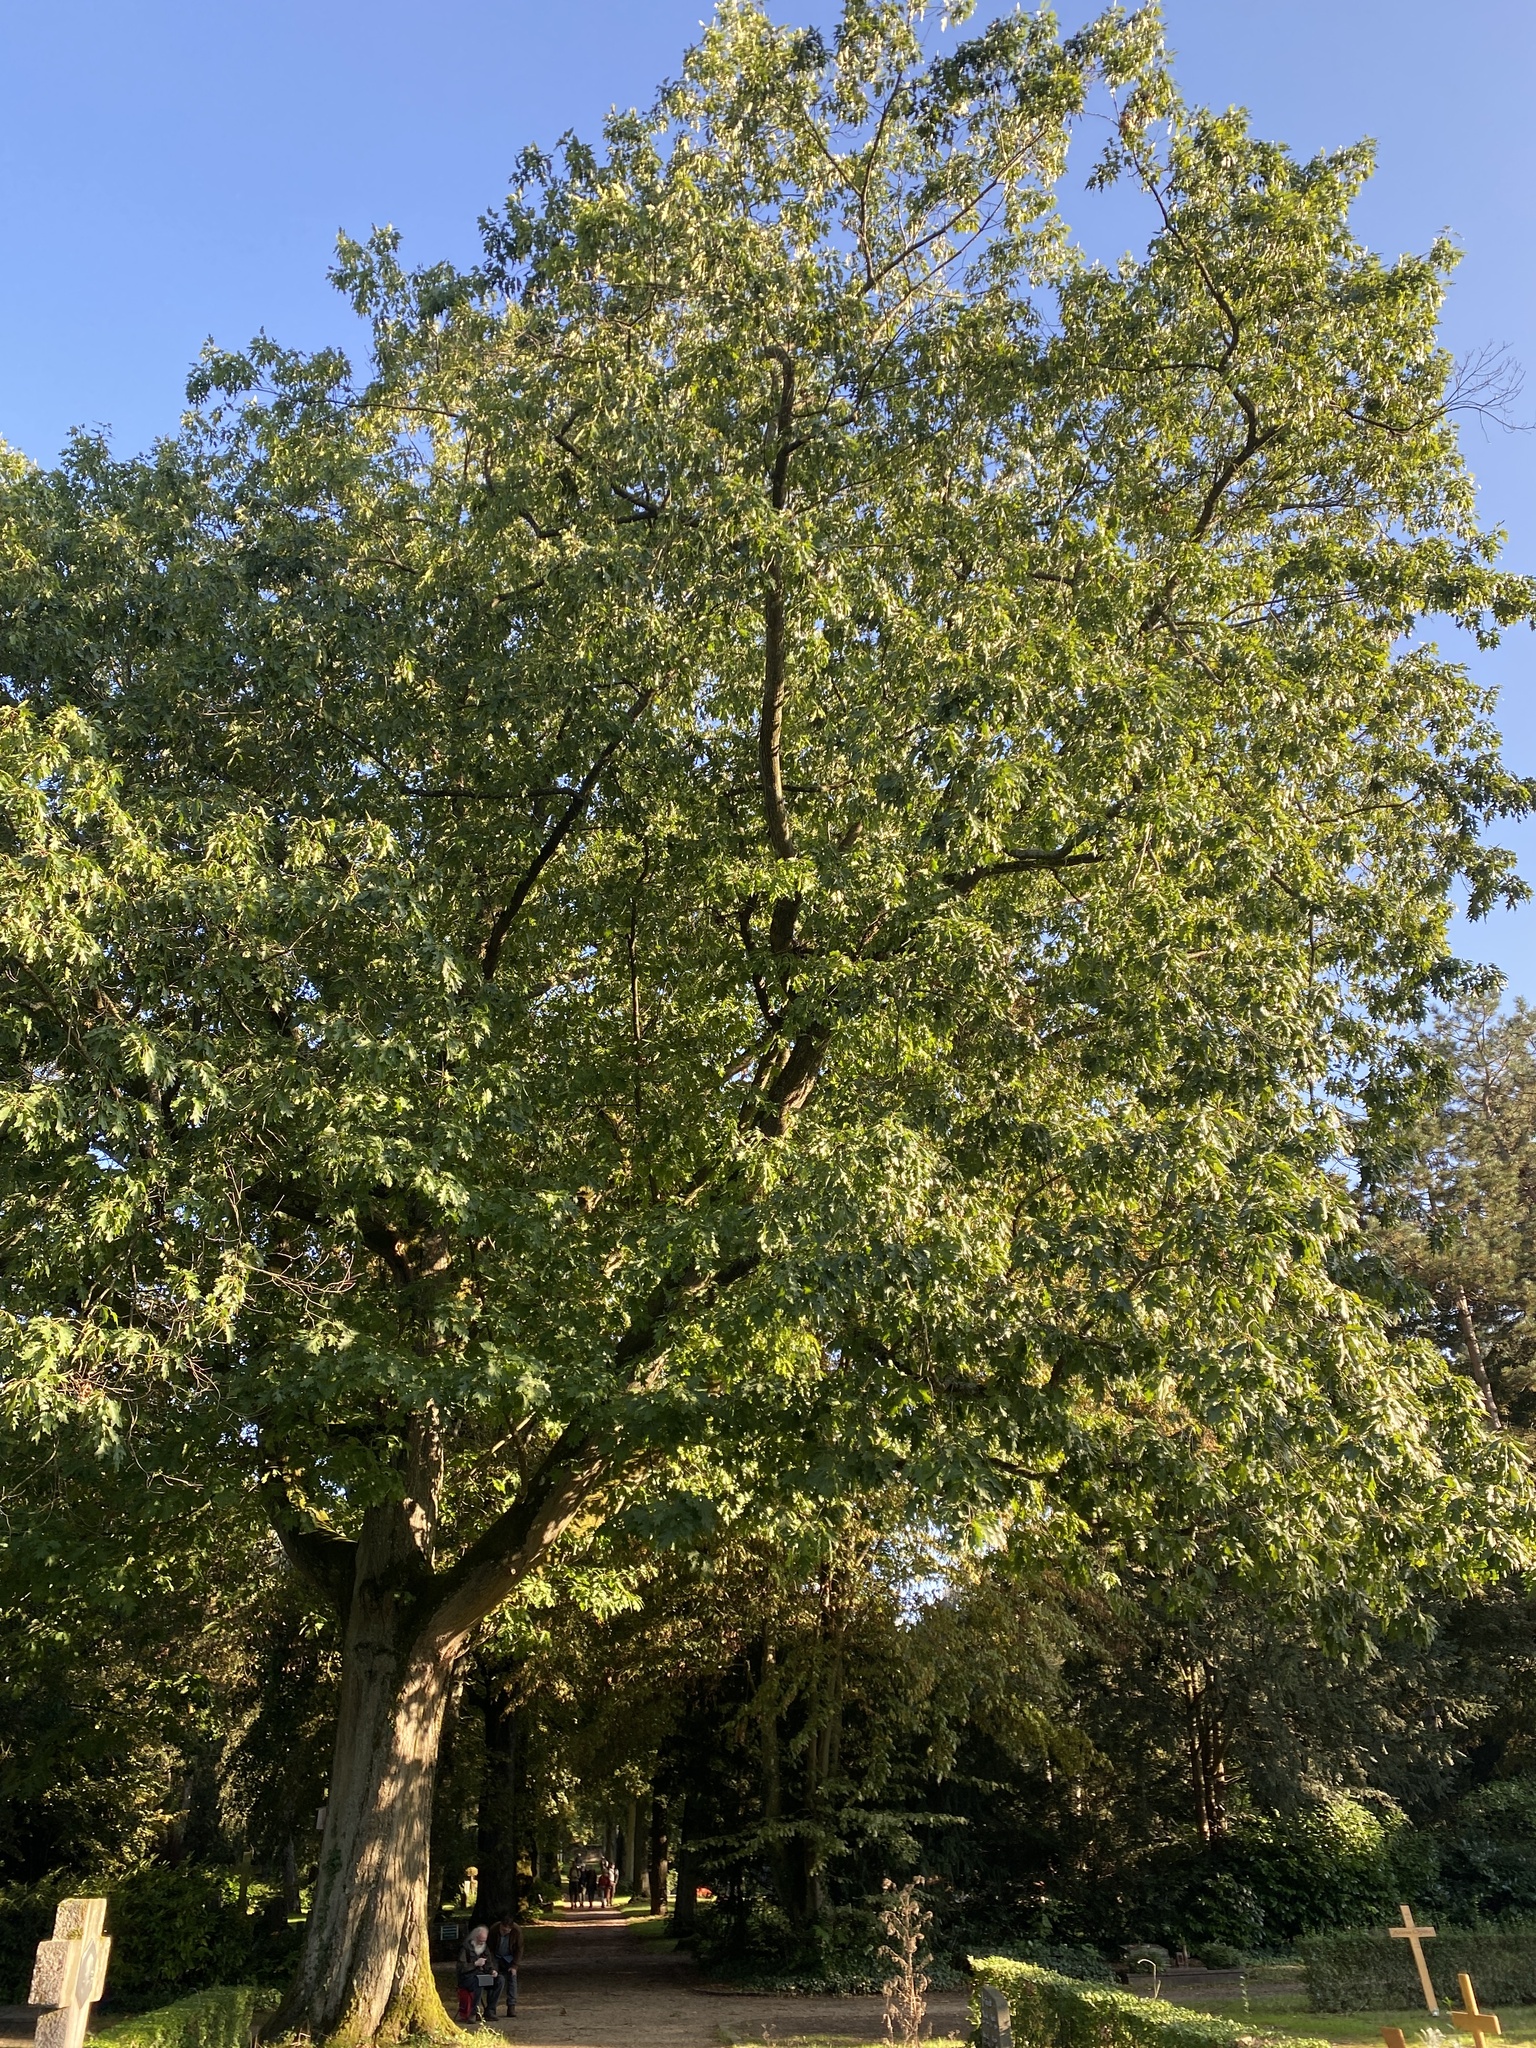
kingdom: Plantae
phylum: Tracheophyta
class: Magnoliopsida
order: Fagales
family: Fagaceae
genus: Quercus
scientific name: Quercus rubra
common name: Red oak
